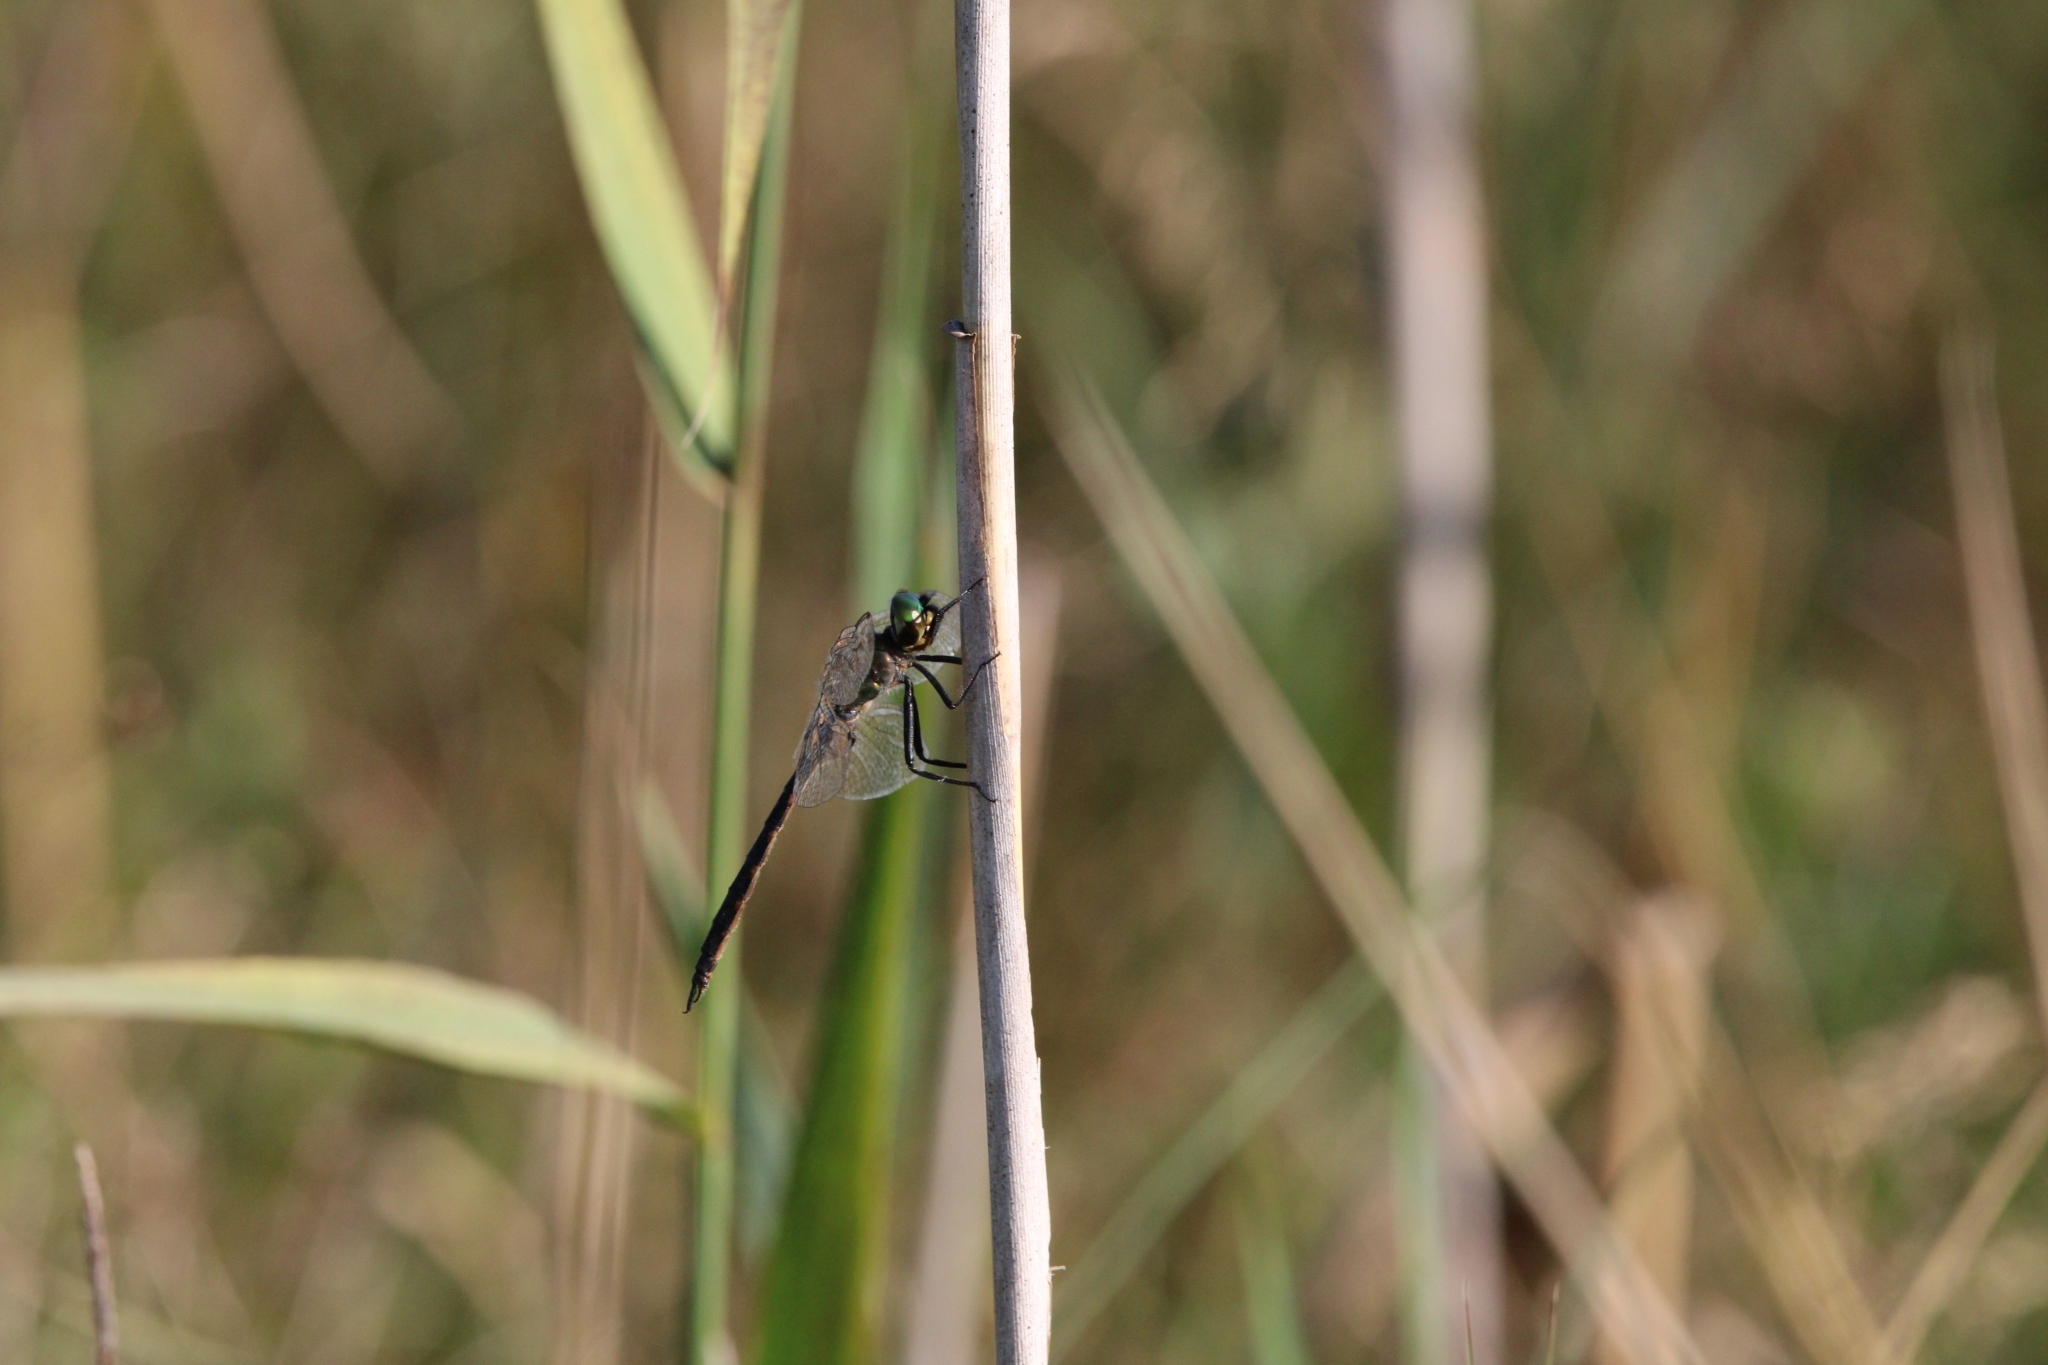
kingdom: Animalia
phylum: Arthropoda
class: Insecta
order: Odonata
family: Corduliidae
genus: Somatochlora
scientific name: Somatochlora flavomaculata
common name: Yellow-spotted emerald
